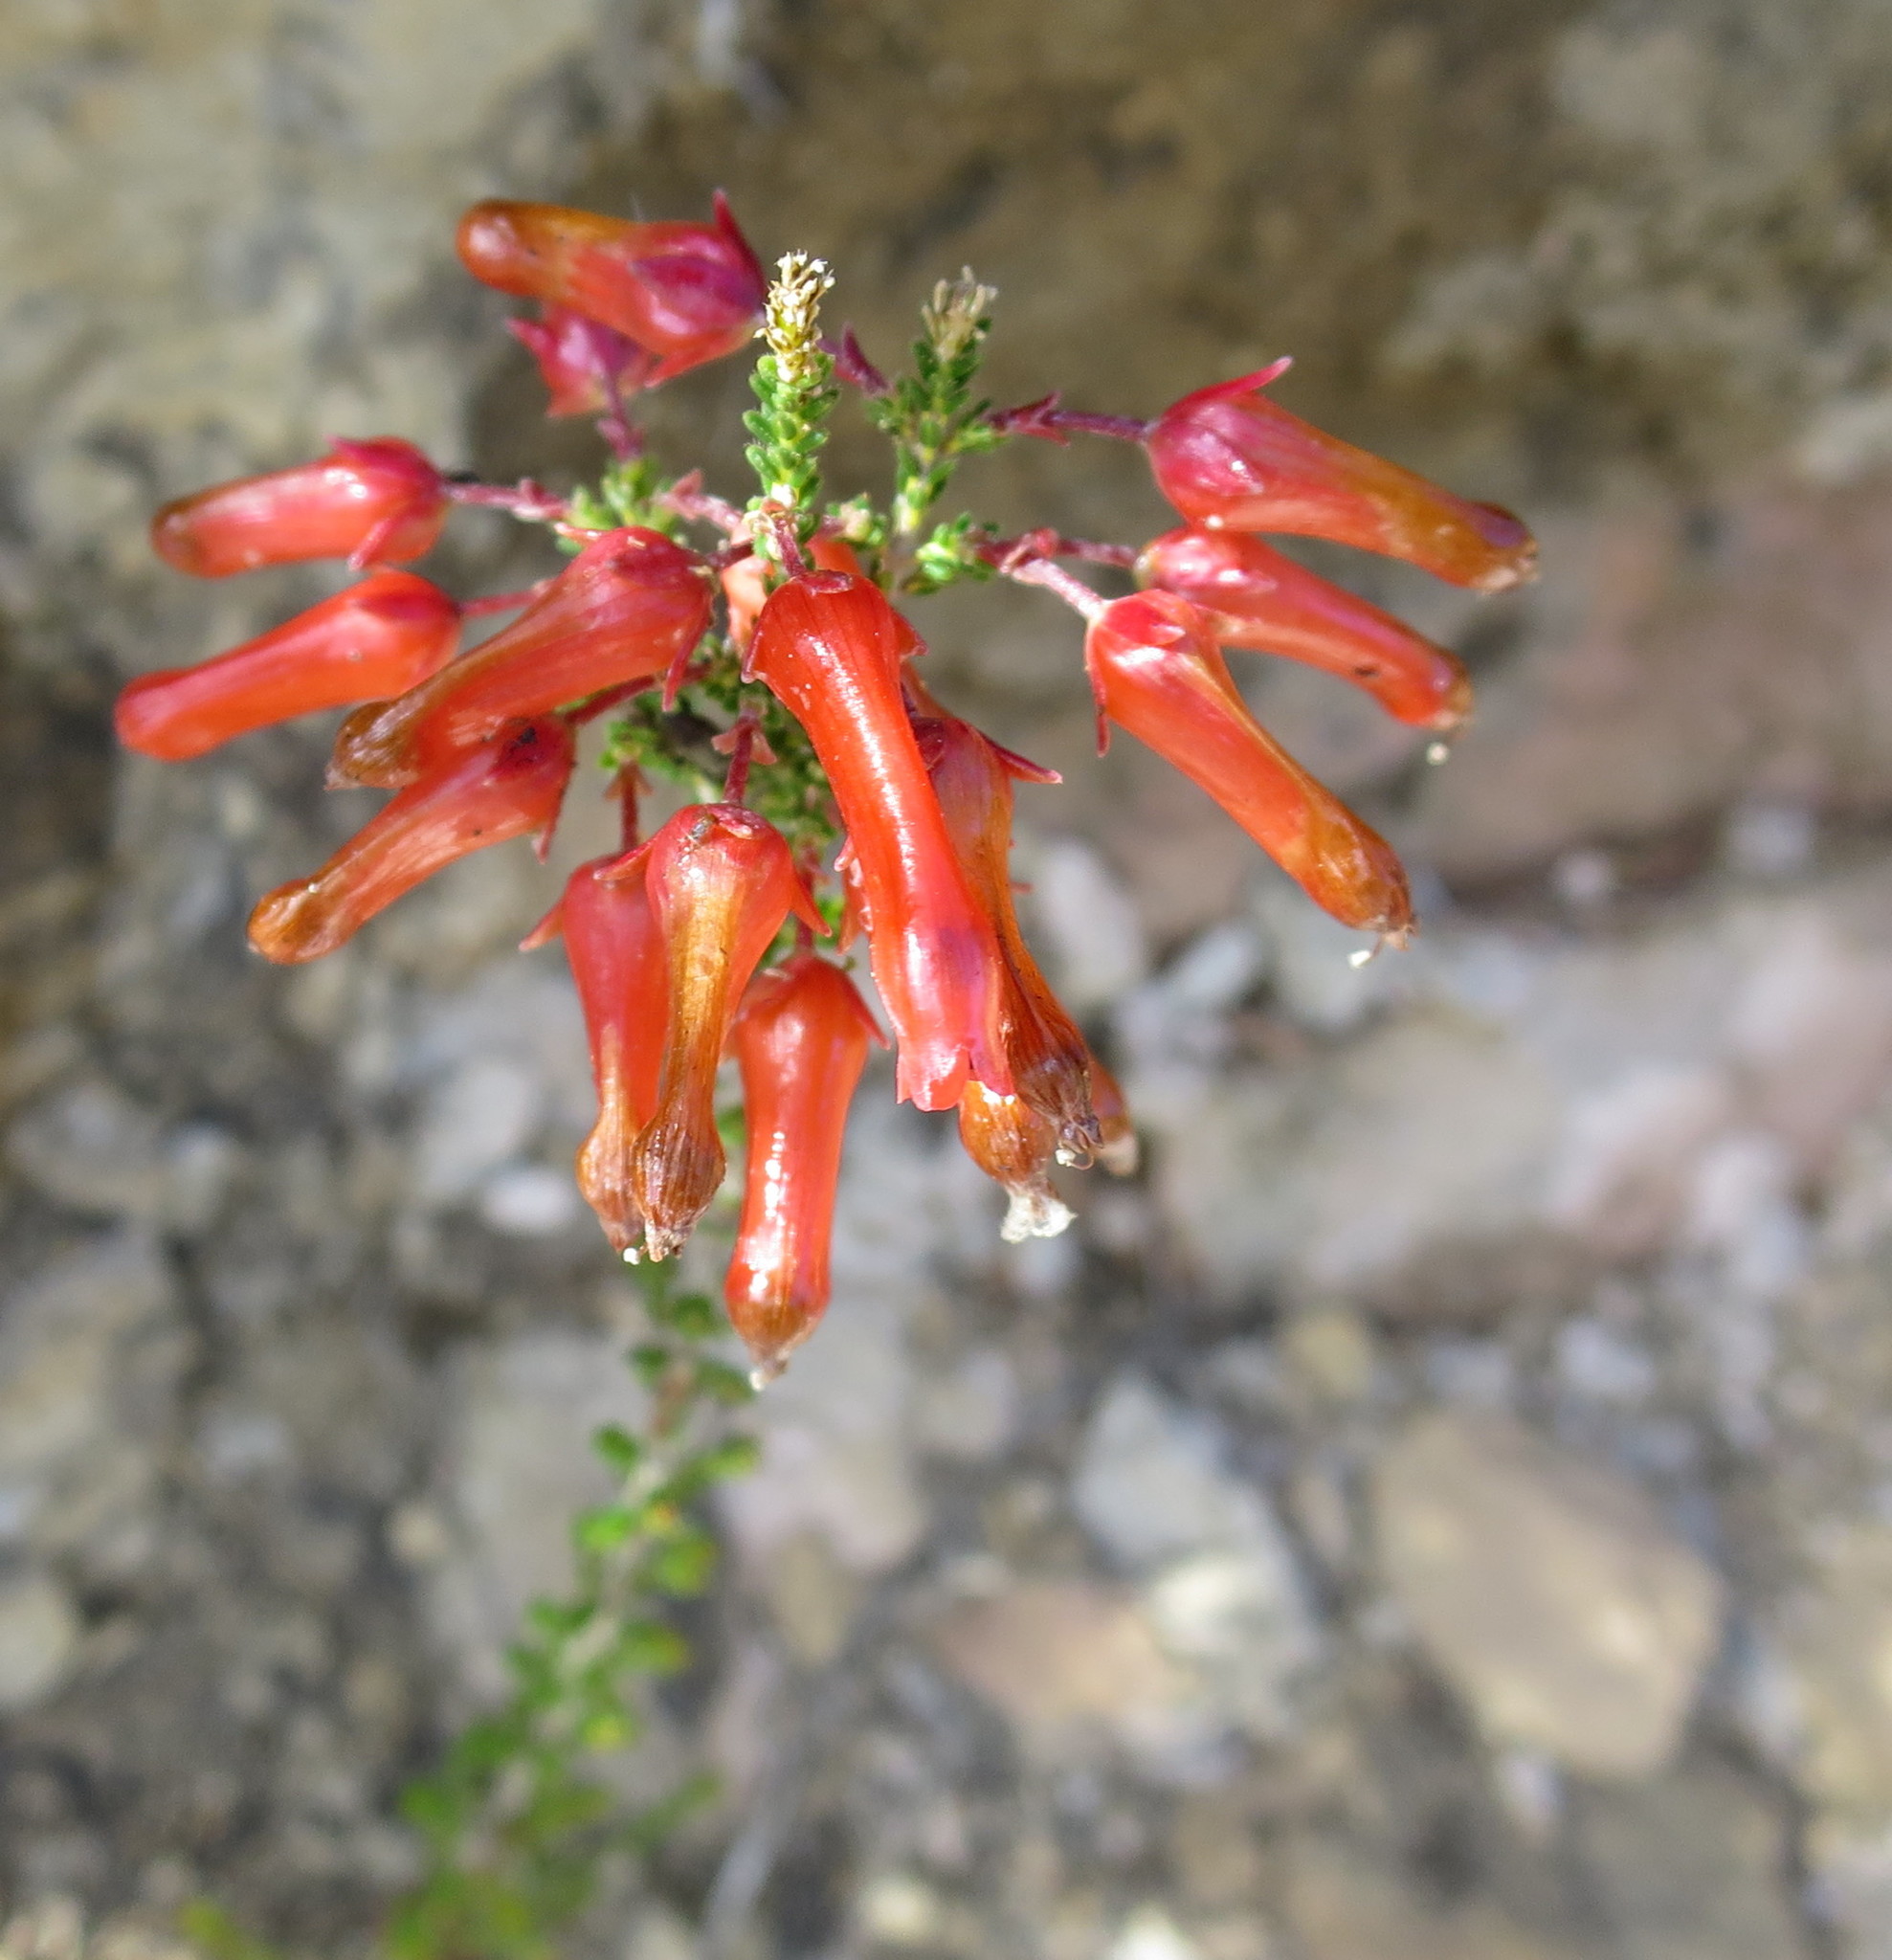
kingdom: Plantae
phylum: Tracheophyta
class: Magnoliopsida
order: Ericales
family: Ericaceae
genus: Erica
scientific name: Erica inordinata
